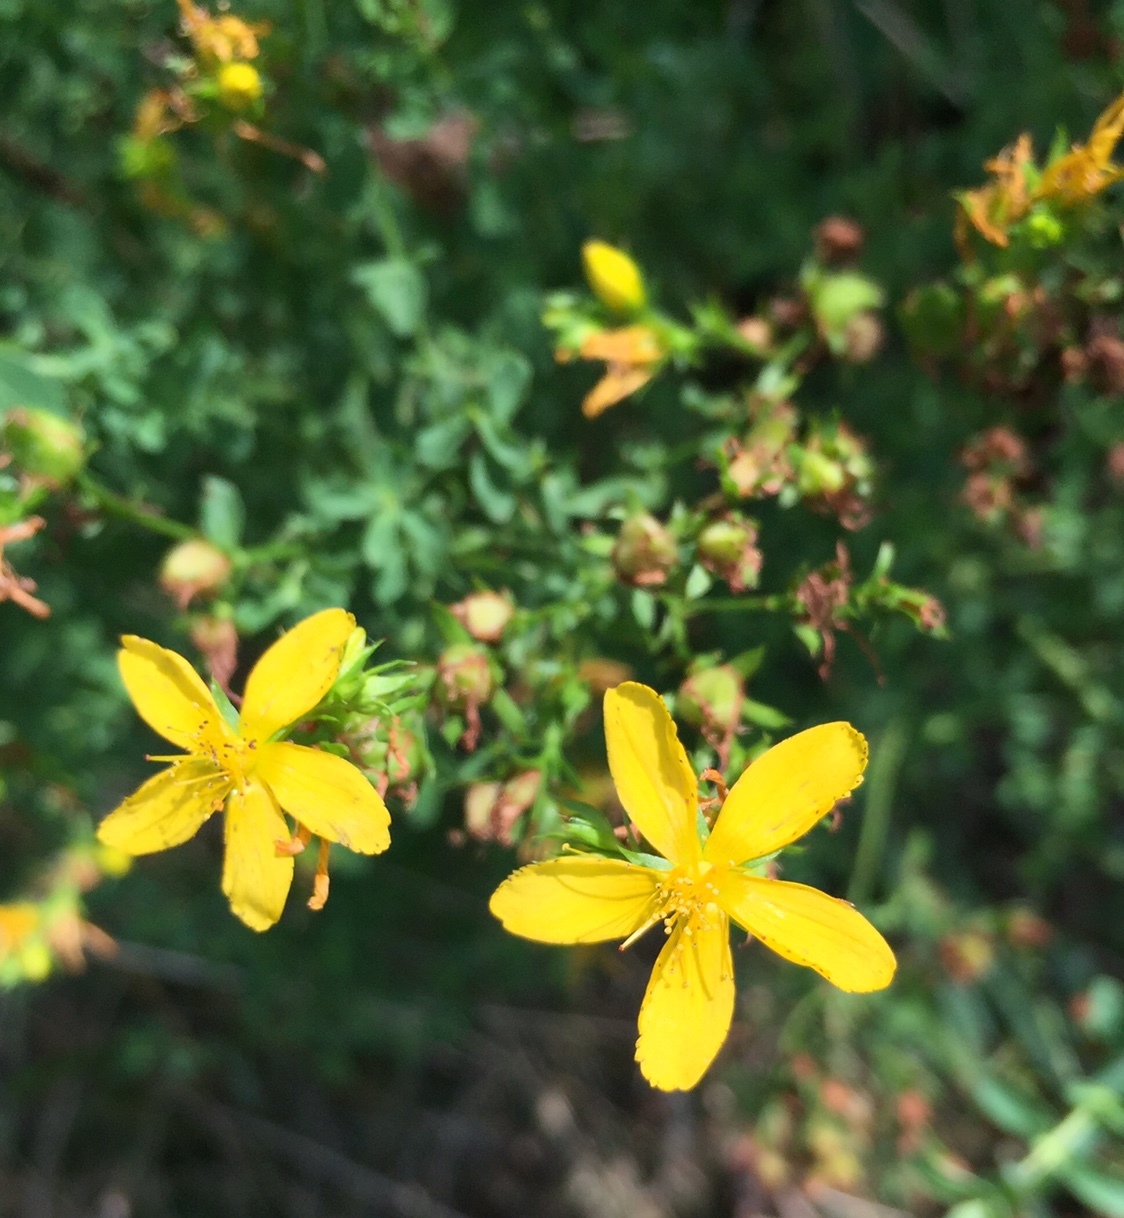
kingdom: Plantae
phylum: Tracheophyta
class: Magnoliopsida
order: Malpighiales
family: Hypericaceae
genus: Hypericum
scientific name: Hypericum perforatum
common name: Common st. johnswort
